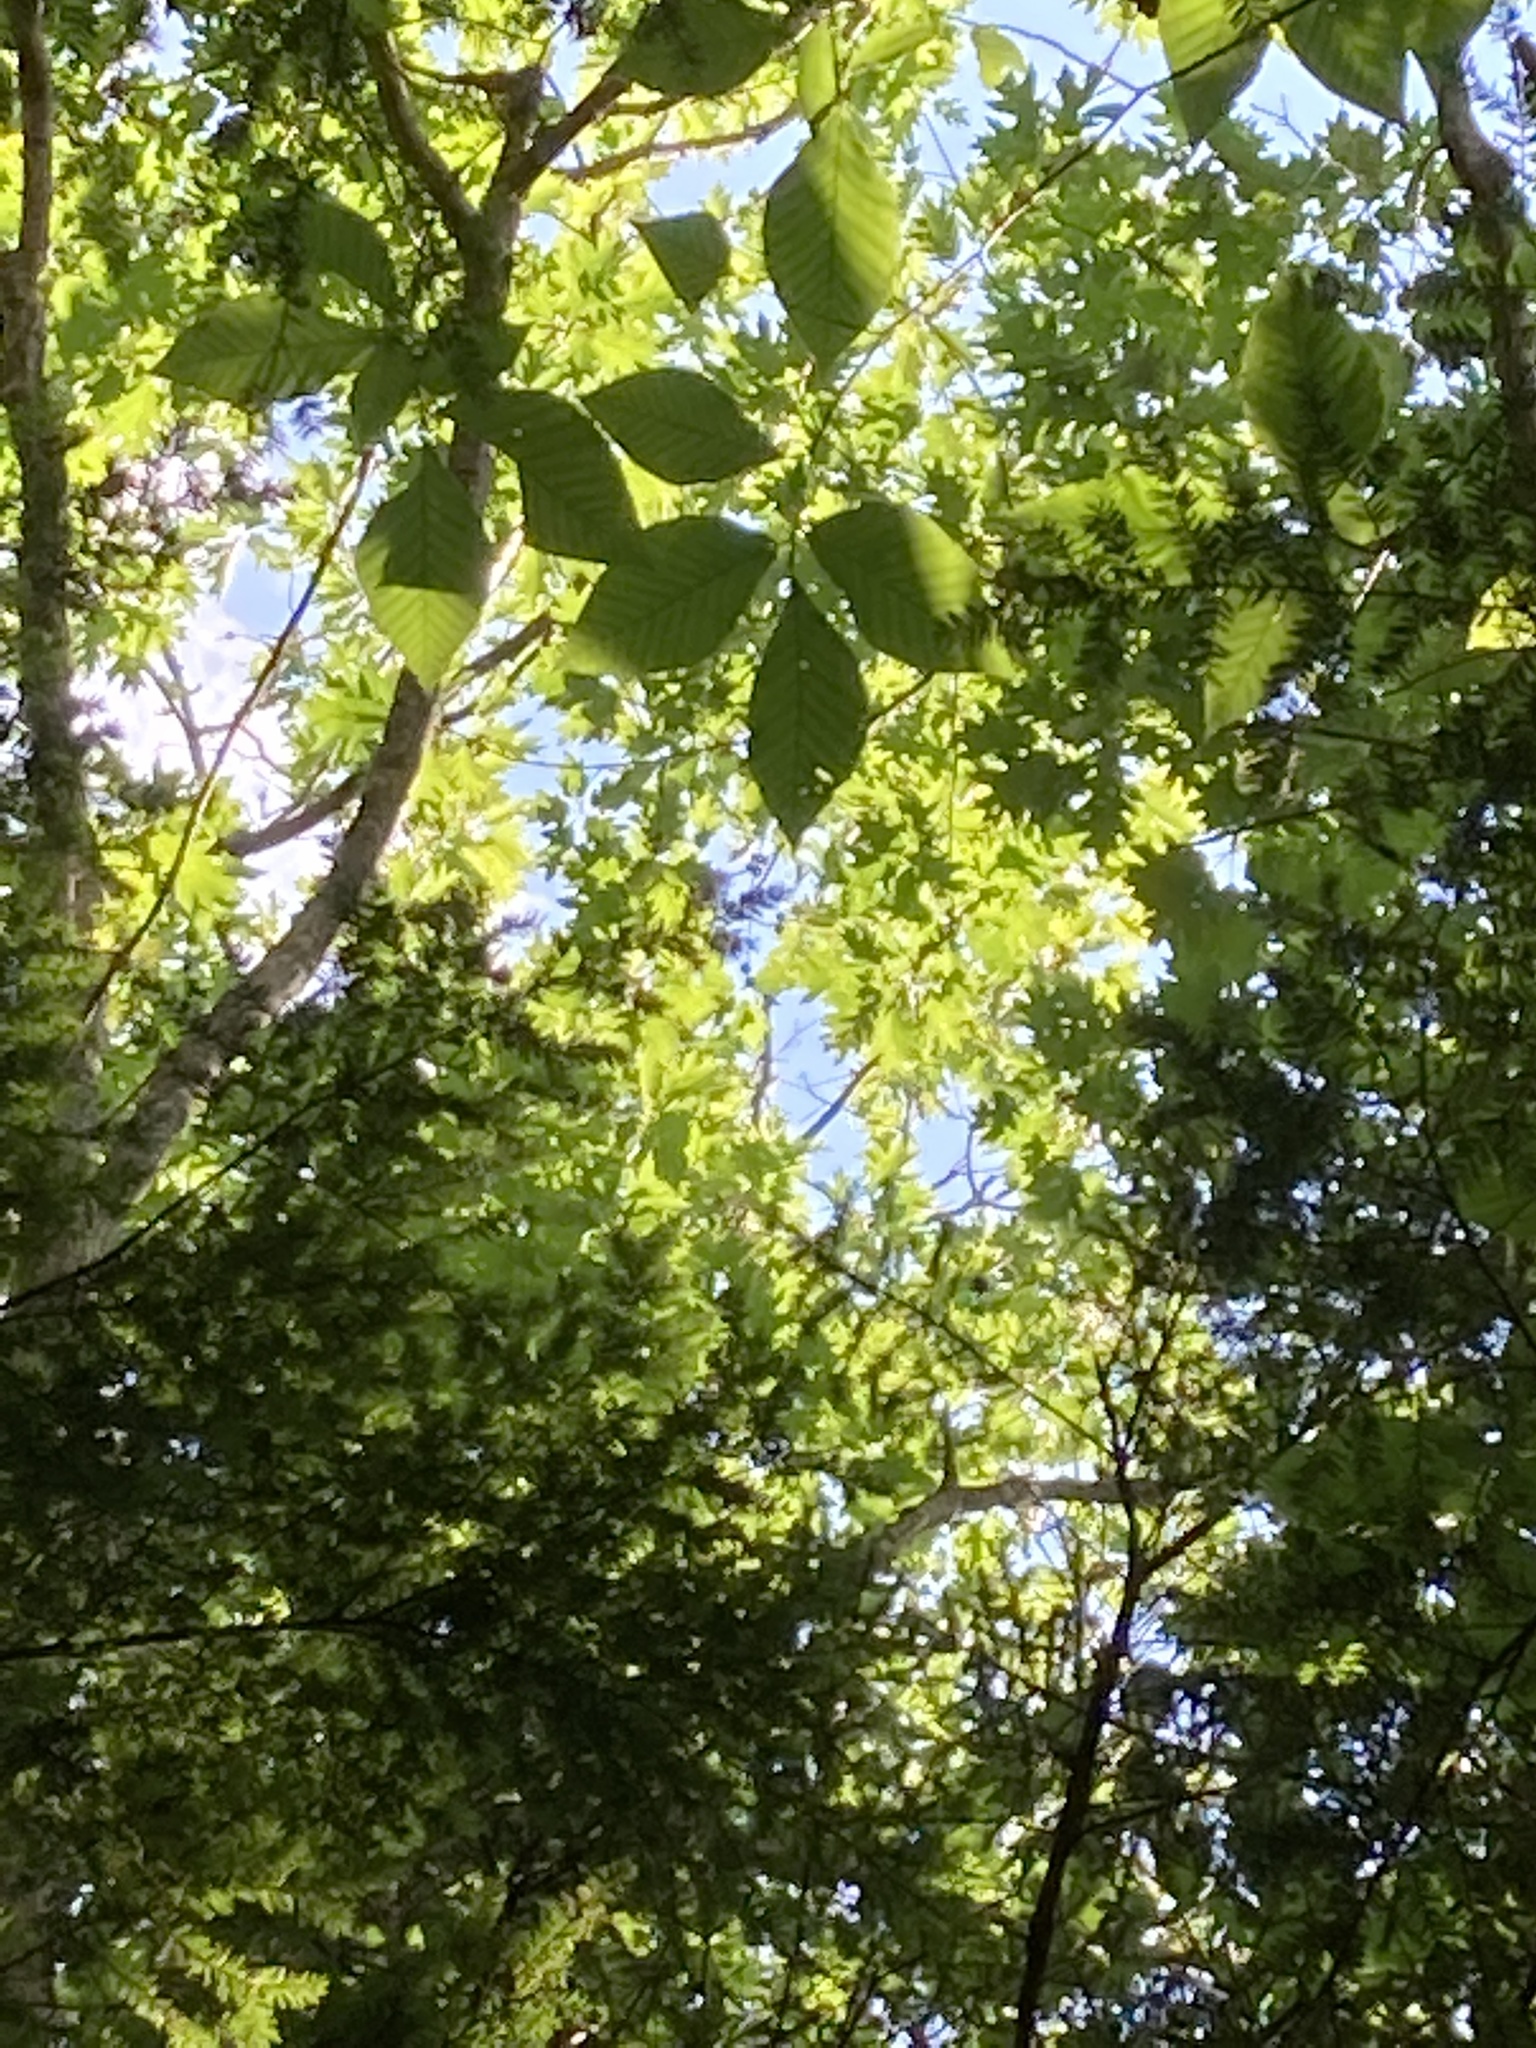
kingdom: Plantae
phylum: Tracheophyta
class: Magnoliopsida
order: Fagales
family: Fagaceae
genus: Quercus
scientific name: Quercus rubra
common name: Red oak
